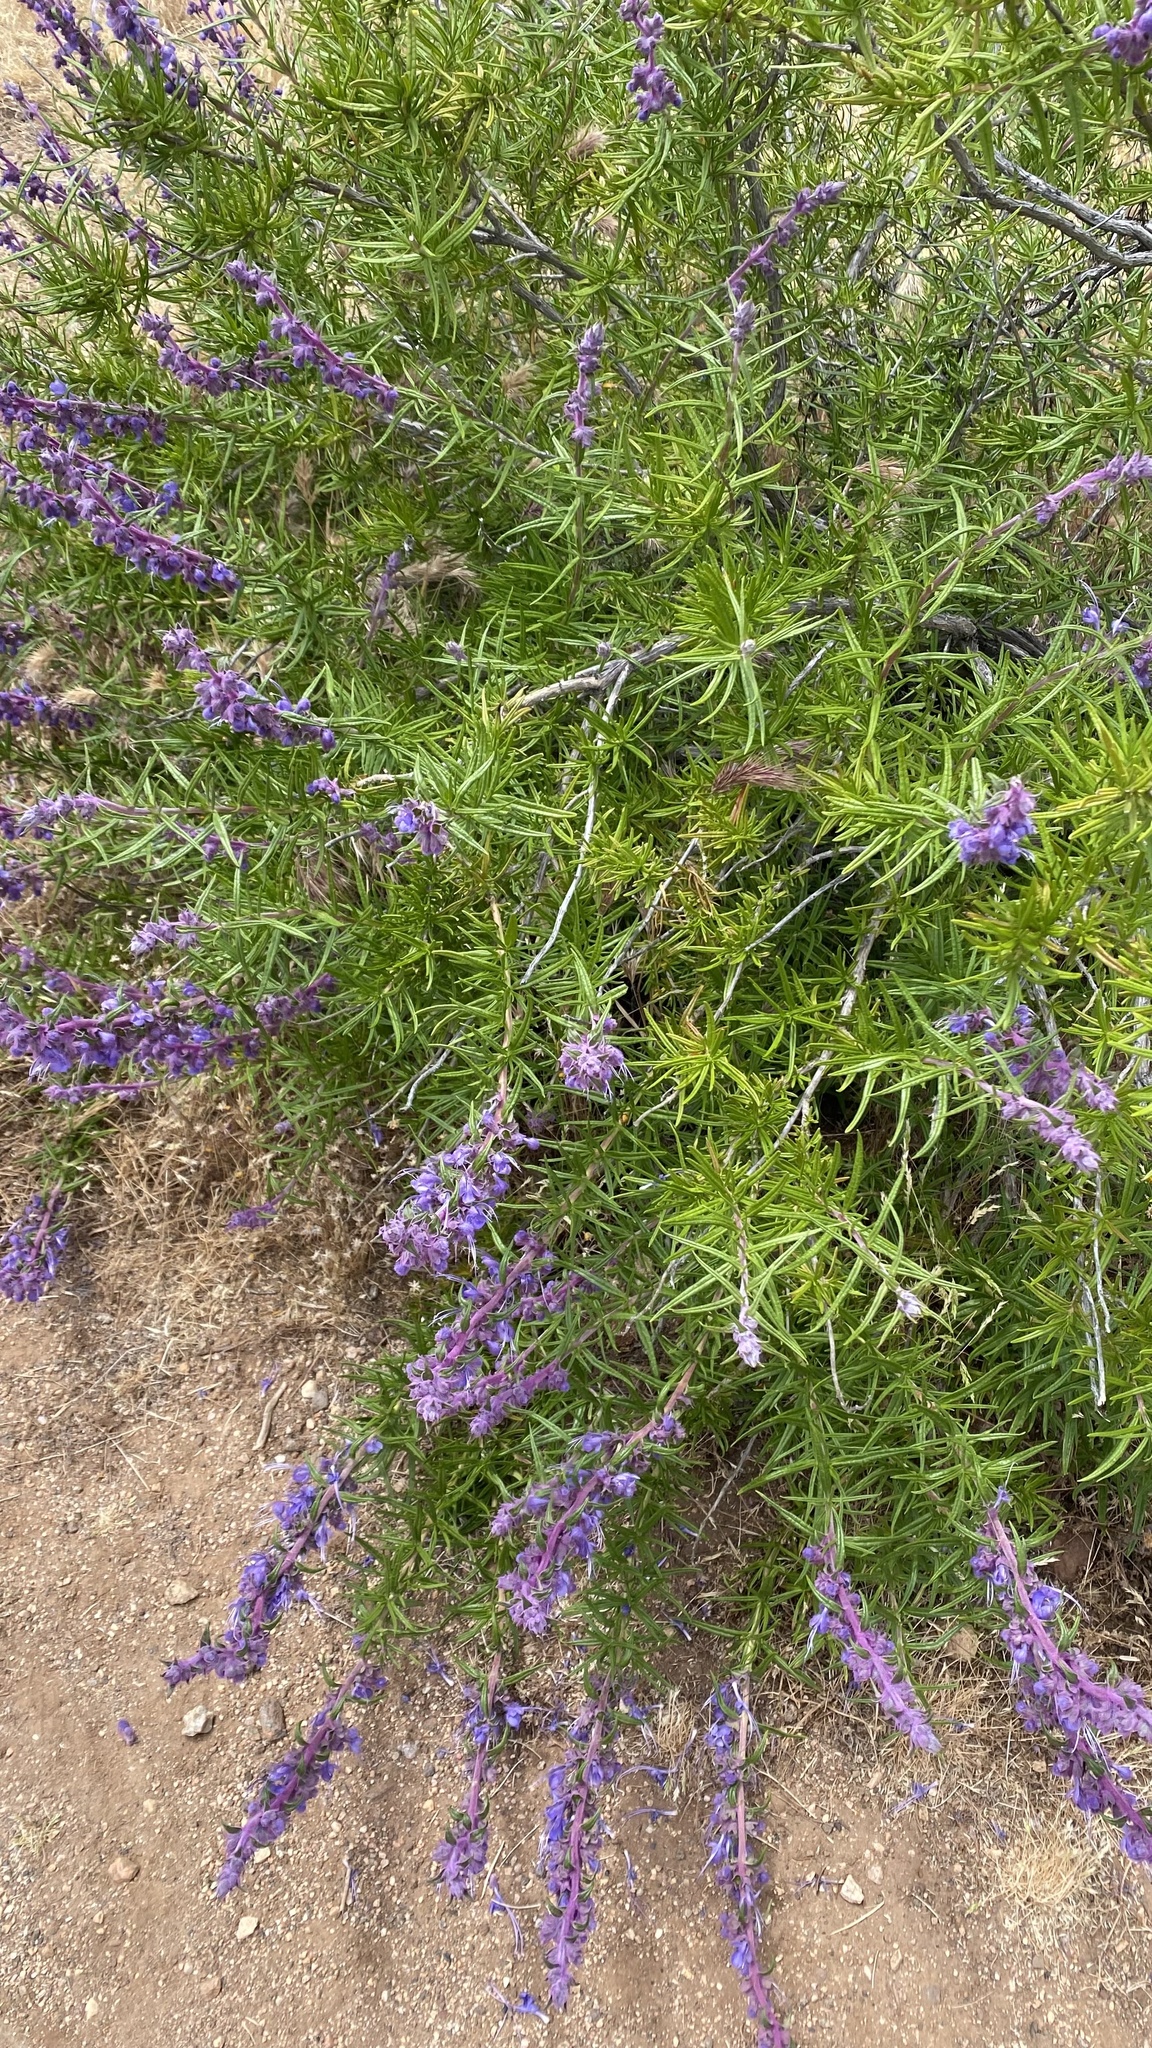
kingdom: Plantae
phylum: Tracheophyta
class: Magnoliopsida
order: Lamiales
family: Lamiaceae
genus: Trichostema
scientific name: Trichostema lanatum
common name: Woolly bluecurls
